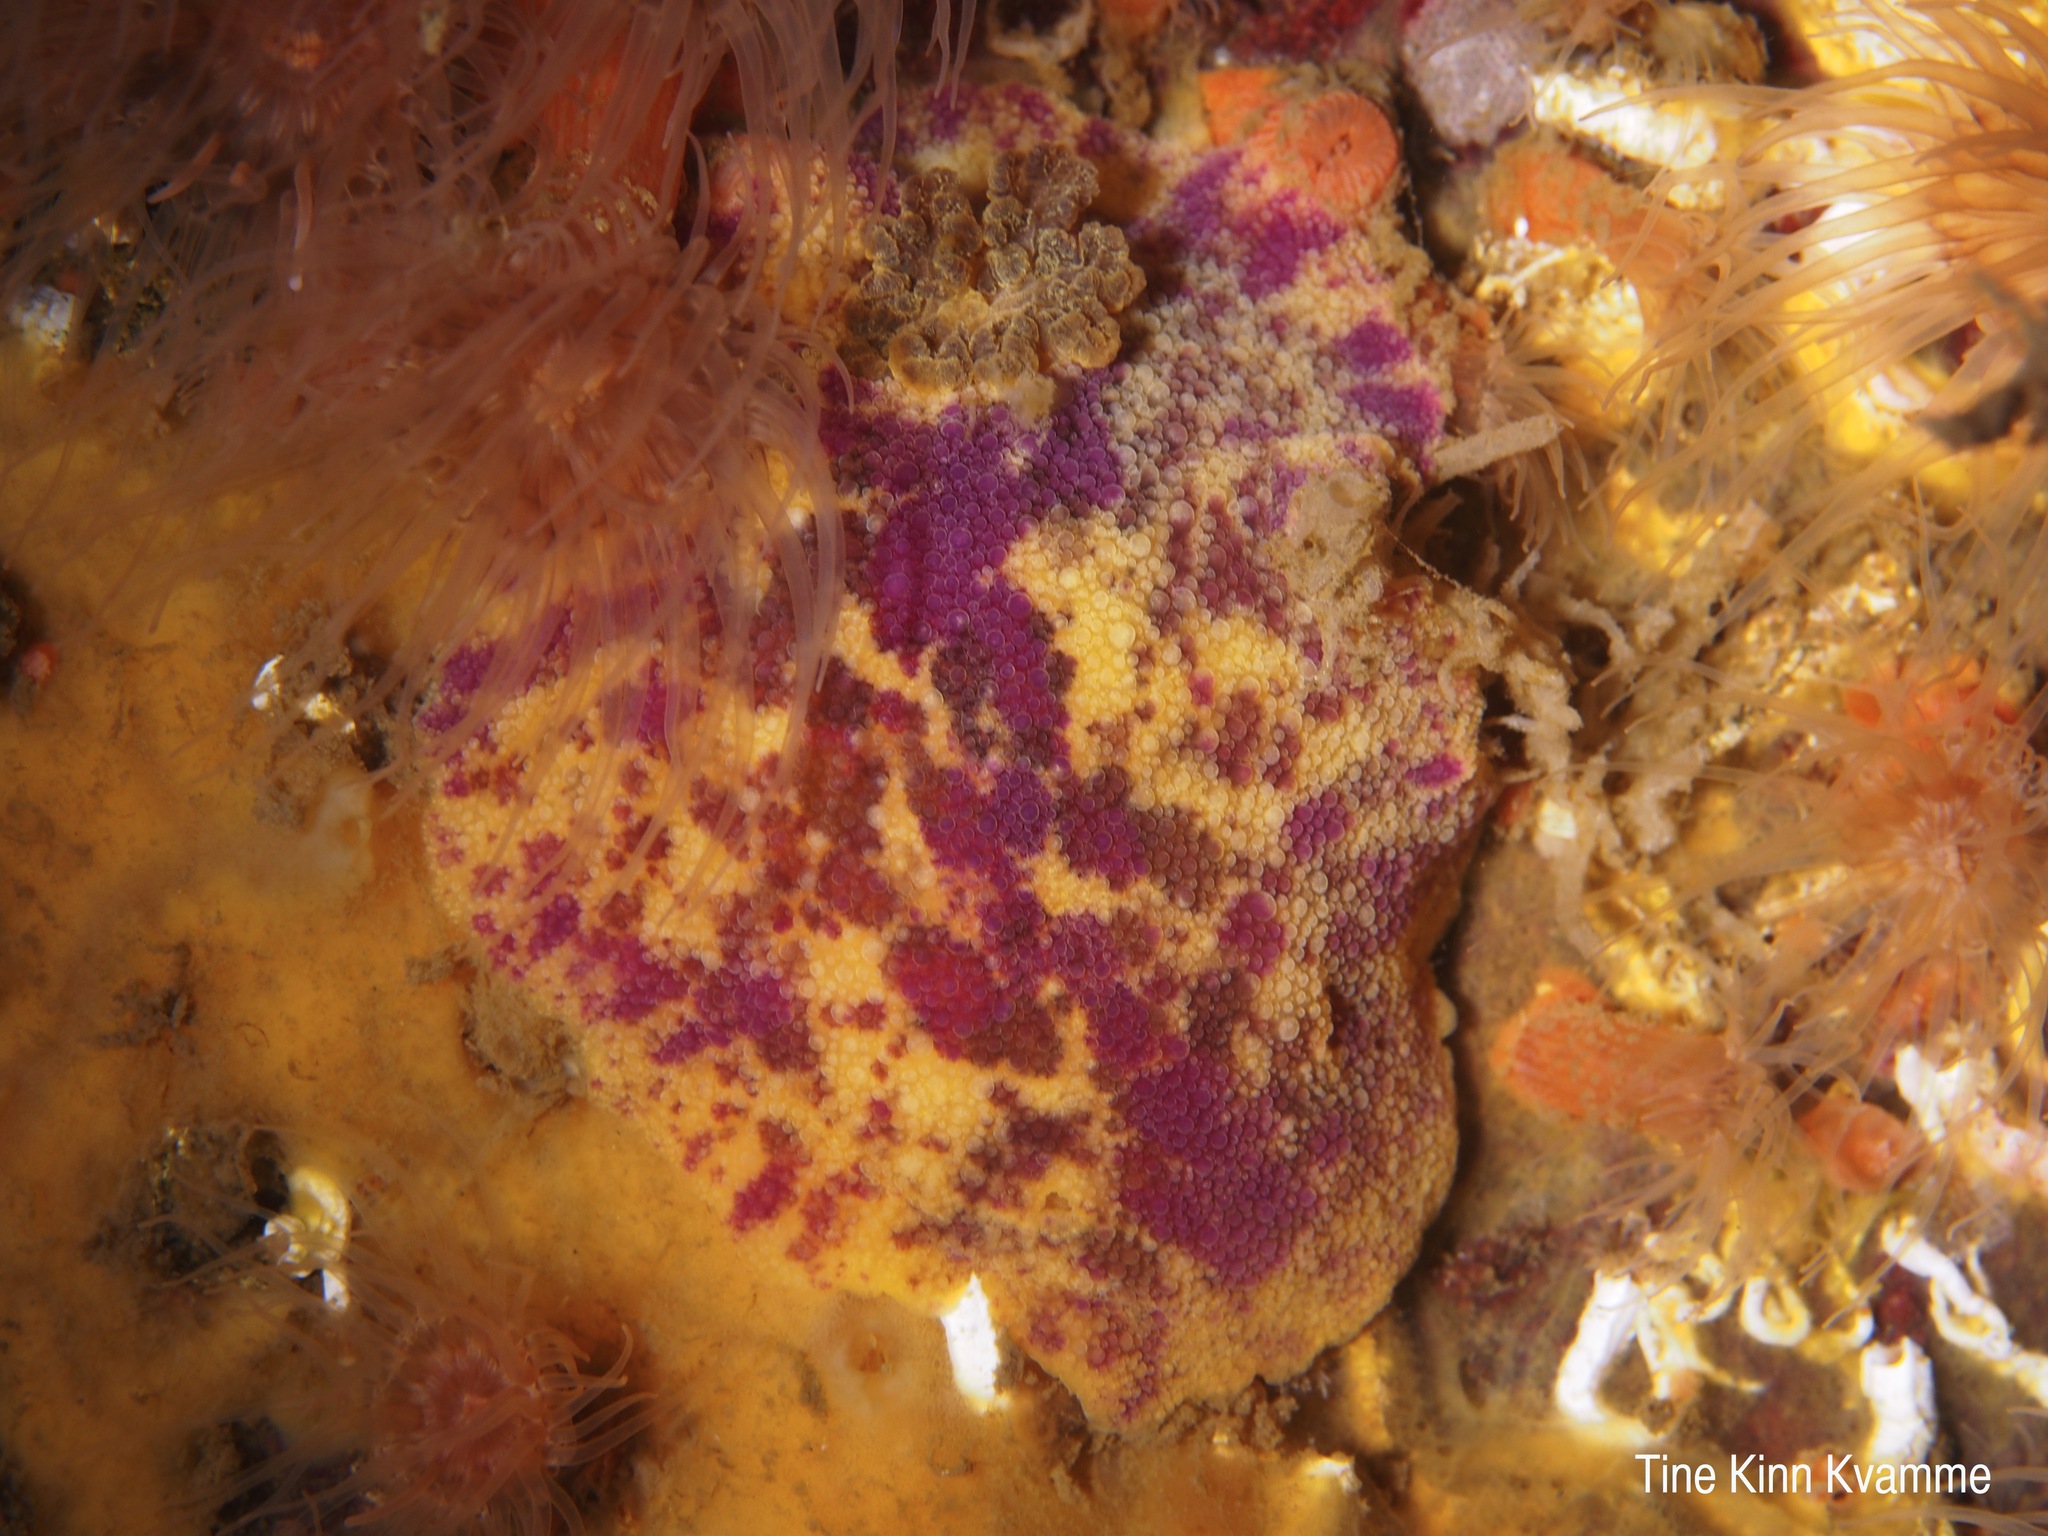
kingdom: Animalia
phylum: Mollusca
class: Gastropoda
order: Nudibranchia
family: Dorididae
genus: Doris
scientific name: Doris pseudoargus
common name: Sea lemon
